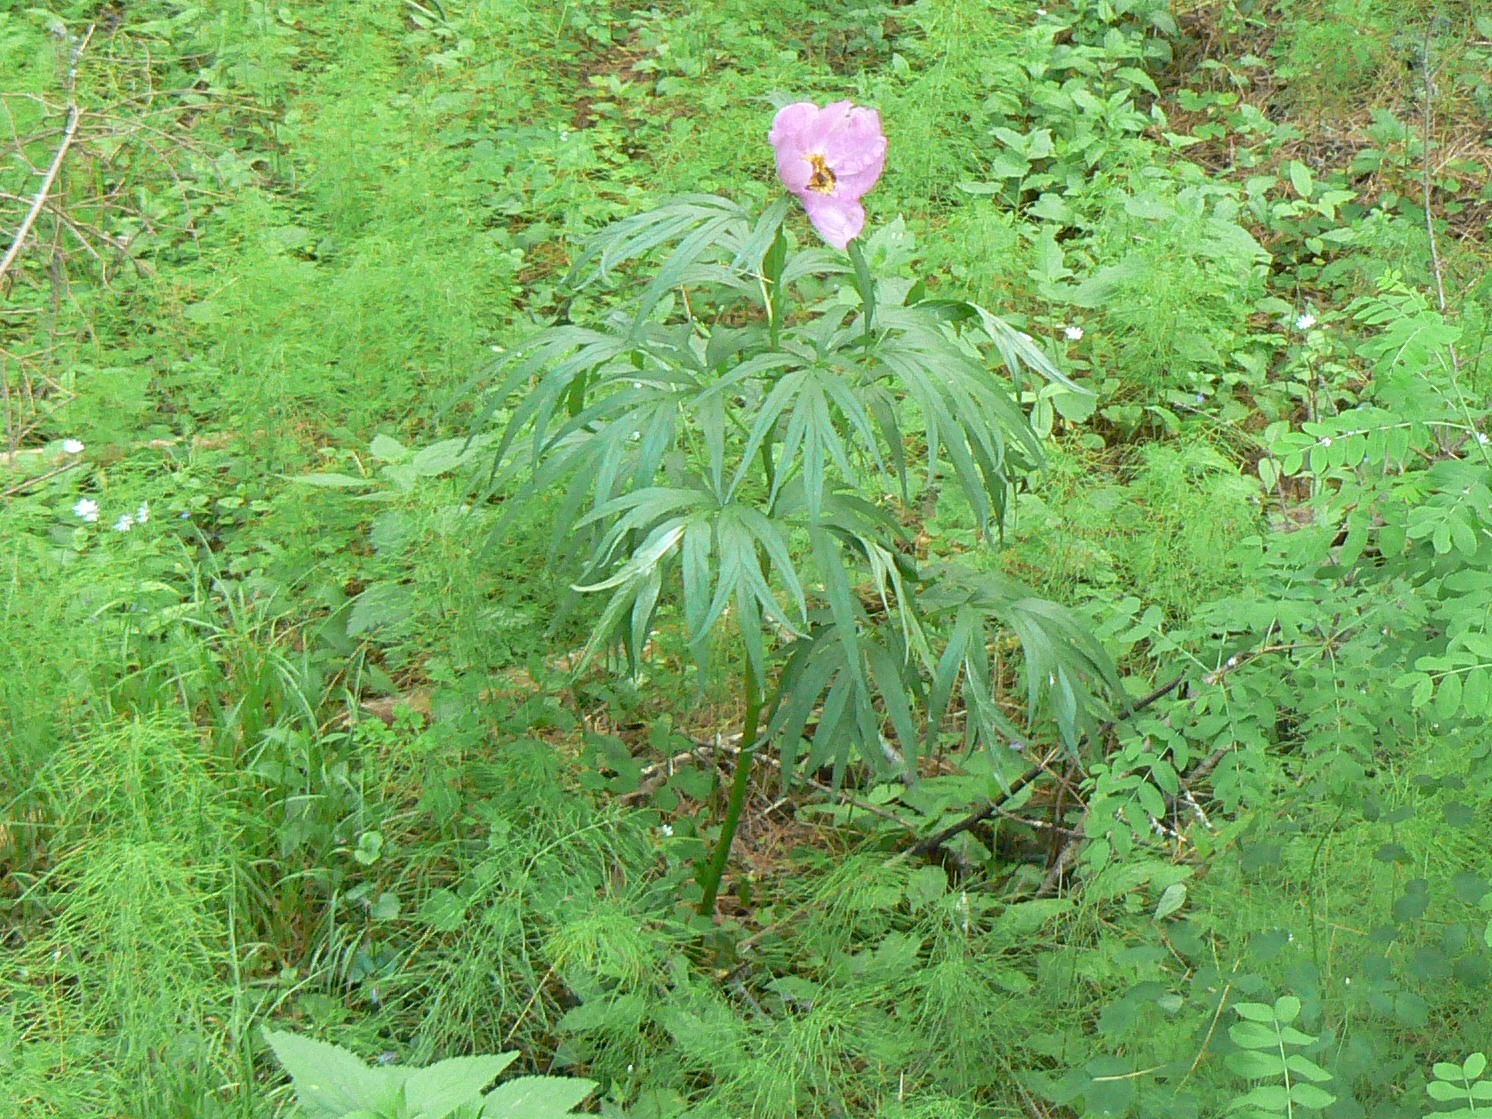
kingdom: Plantae
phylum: Tracheophyta
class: Magnoliopsida
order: Saxifragales
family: Paeoniaceae
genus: Paeonia
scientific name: Paeonia anomala
